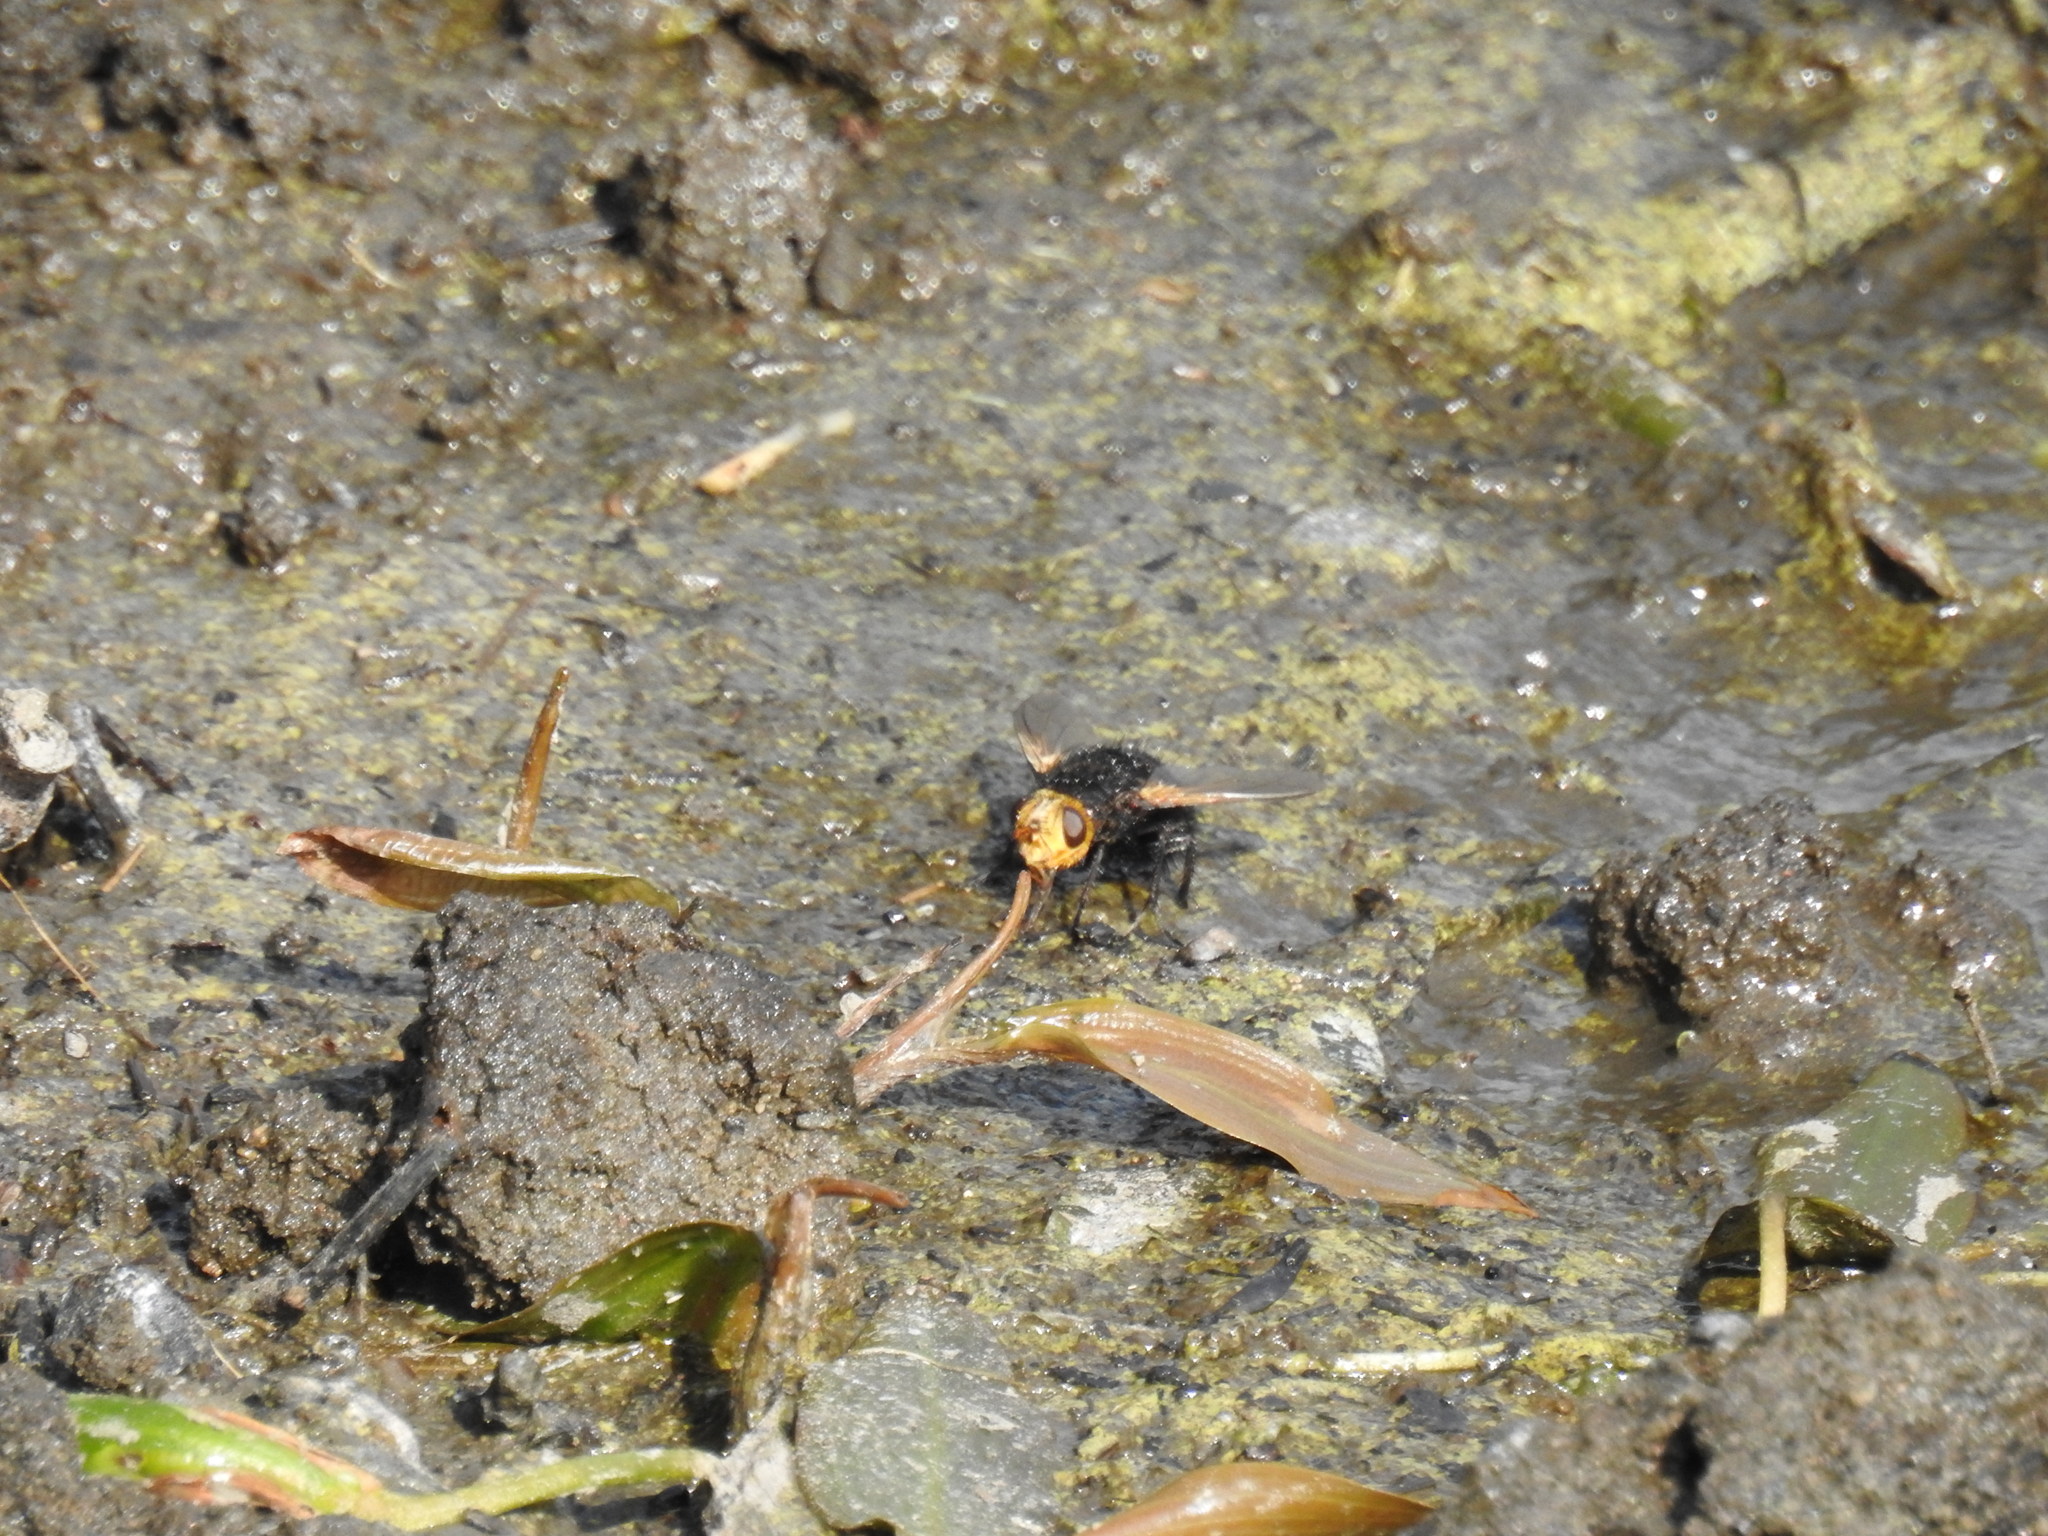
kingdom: Animalia
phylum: Arthropoda
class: Insecta
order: Diptera
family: Tachinidae
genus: Tachina
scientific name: Tachina grossa
